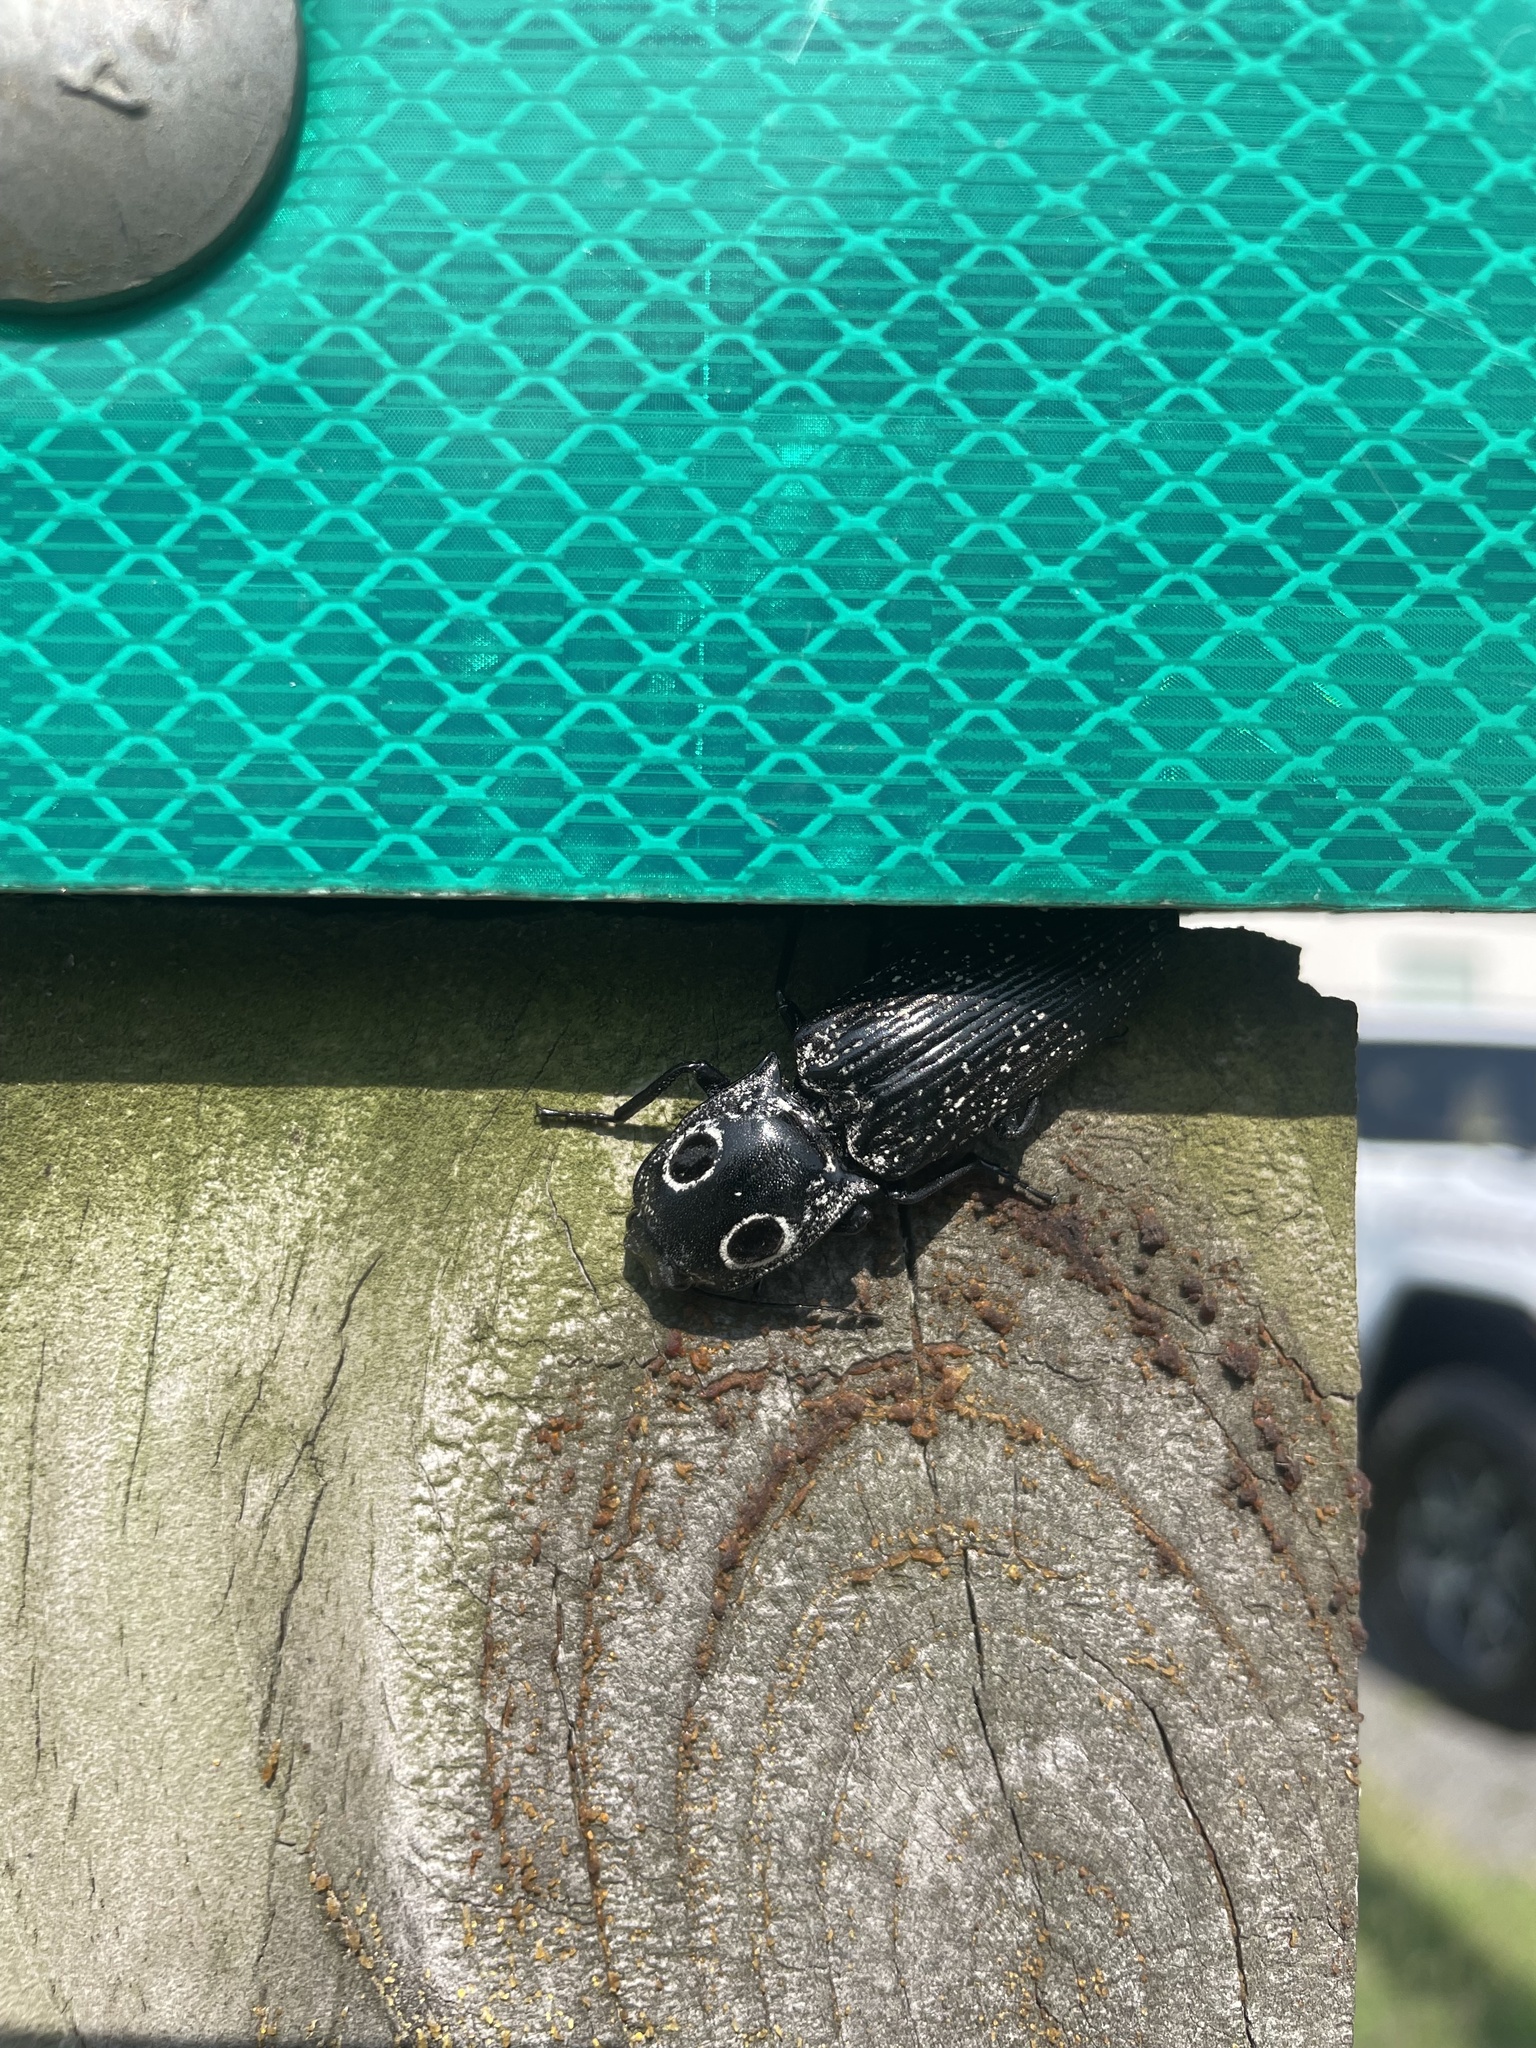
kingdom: Animalia
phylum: Arthropoda
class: Insecta
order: Coleoptera
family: Elateridae
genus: Alaus
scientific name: Alaus oculatus
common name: Eastern eyed click beetle
